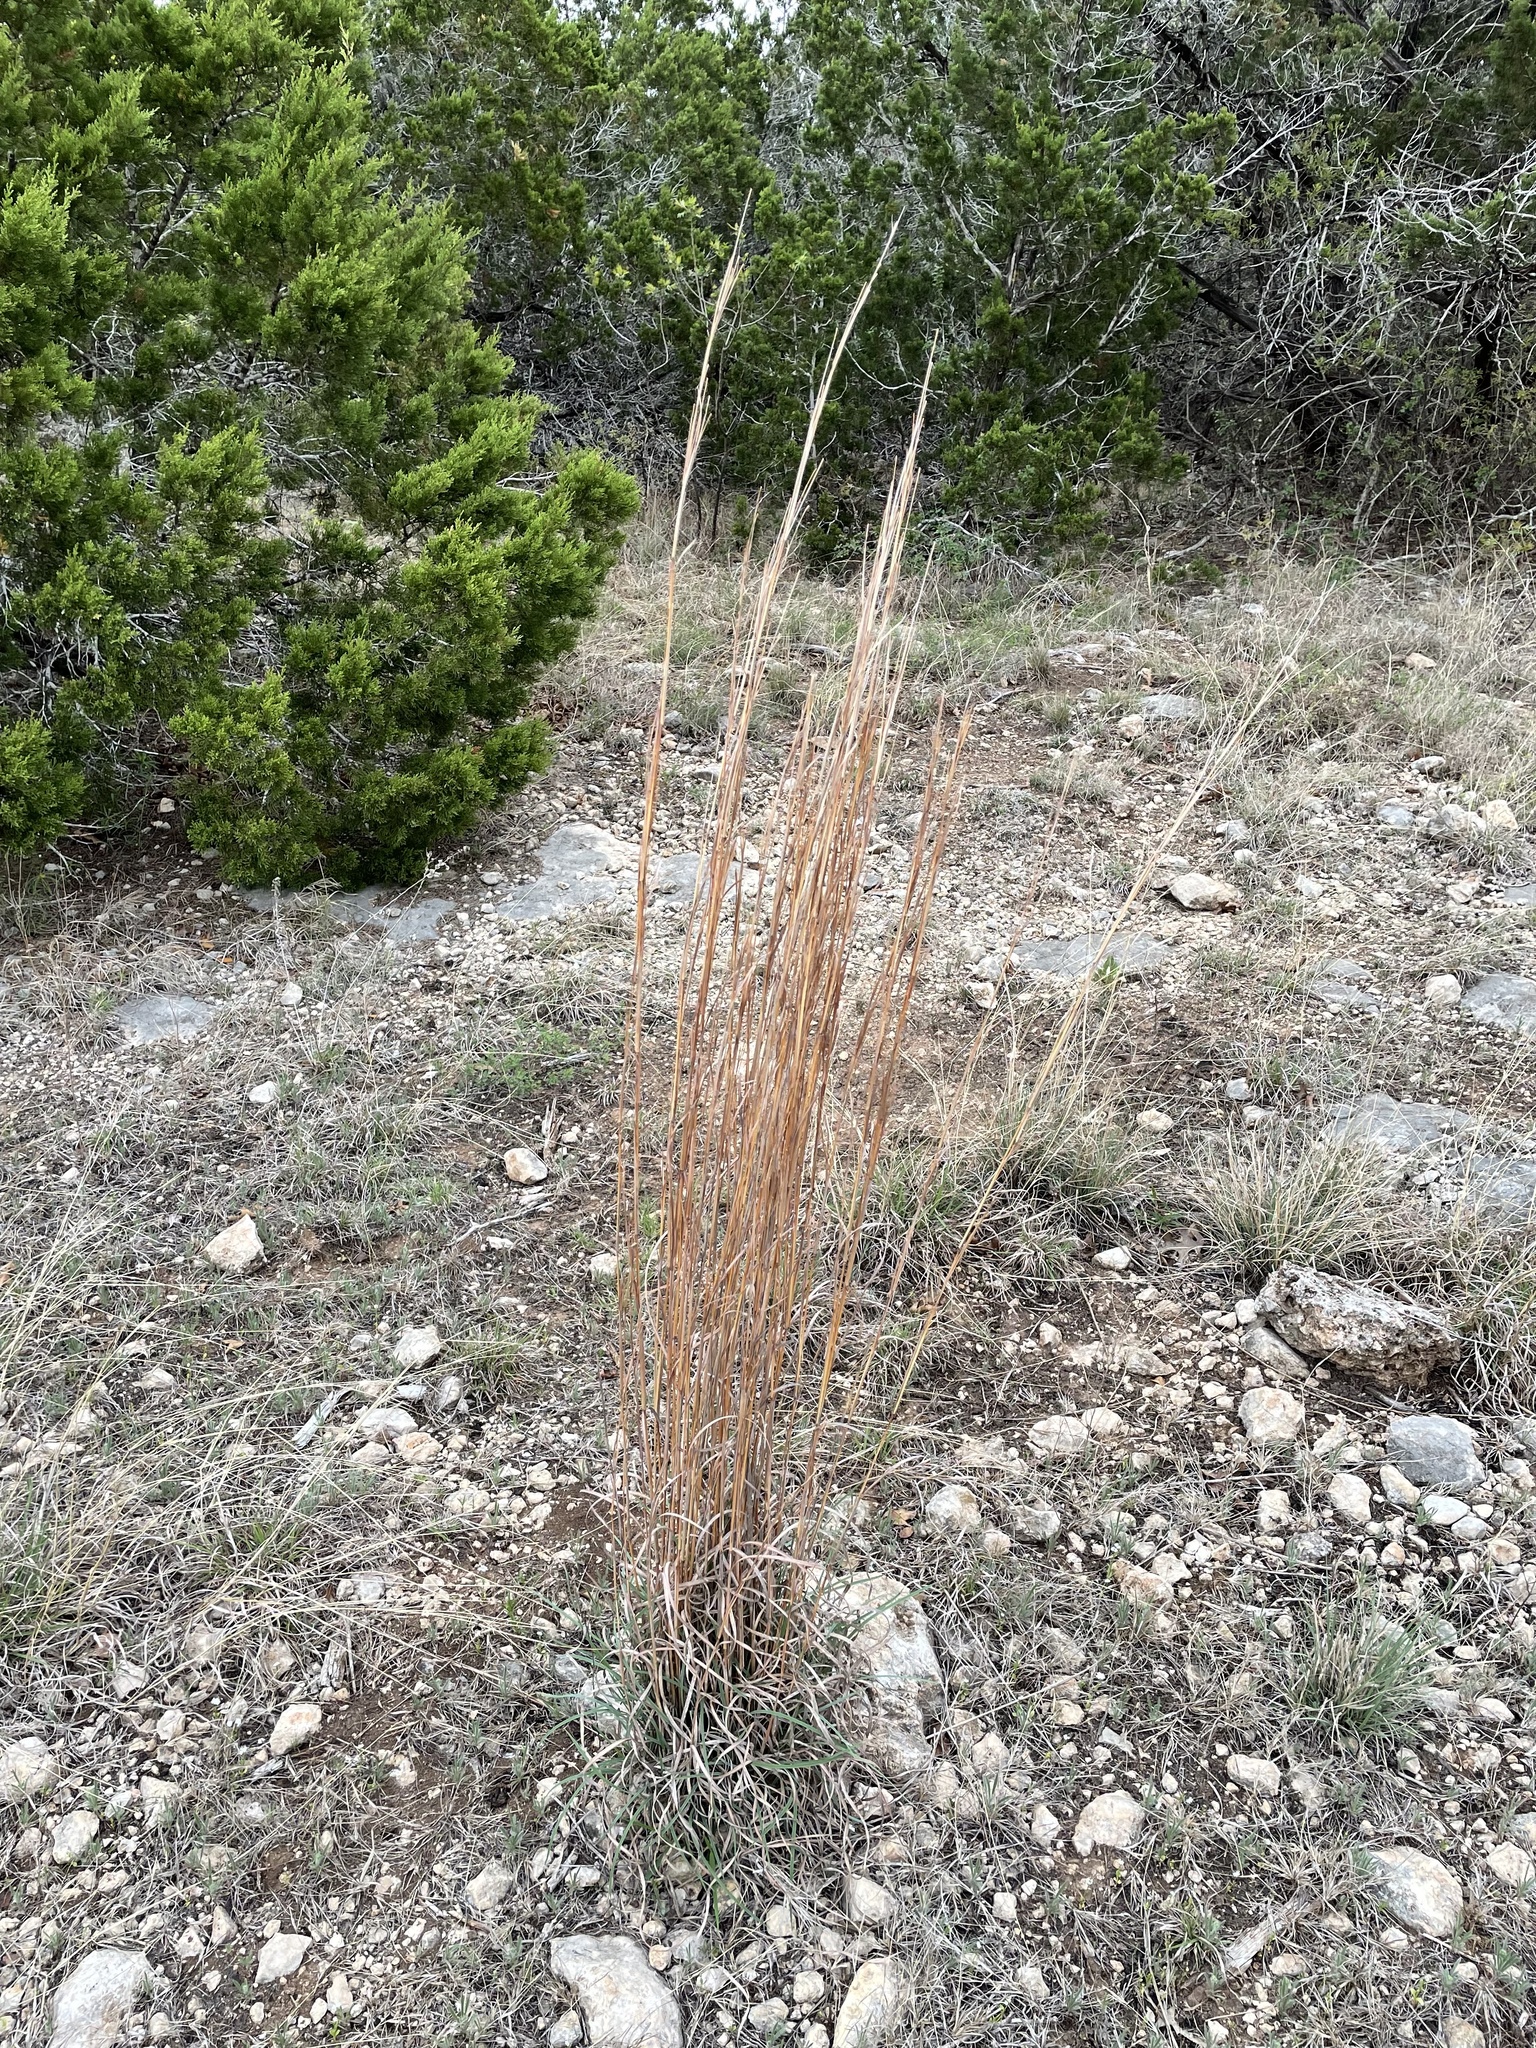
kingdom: Plantae
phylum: Tracheophyta
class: Liliopsida
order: Poales
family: Poaceae
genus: Schizachyrium
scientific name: Schizachyrium scoparium
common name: Little bluestem
